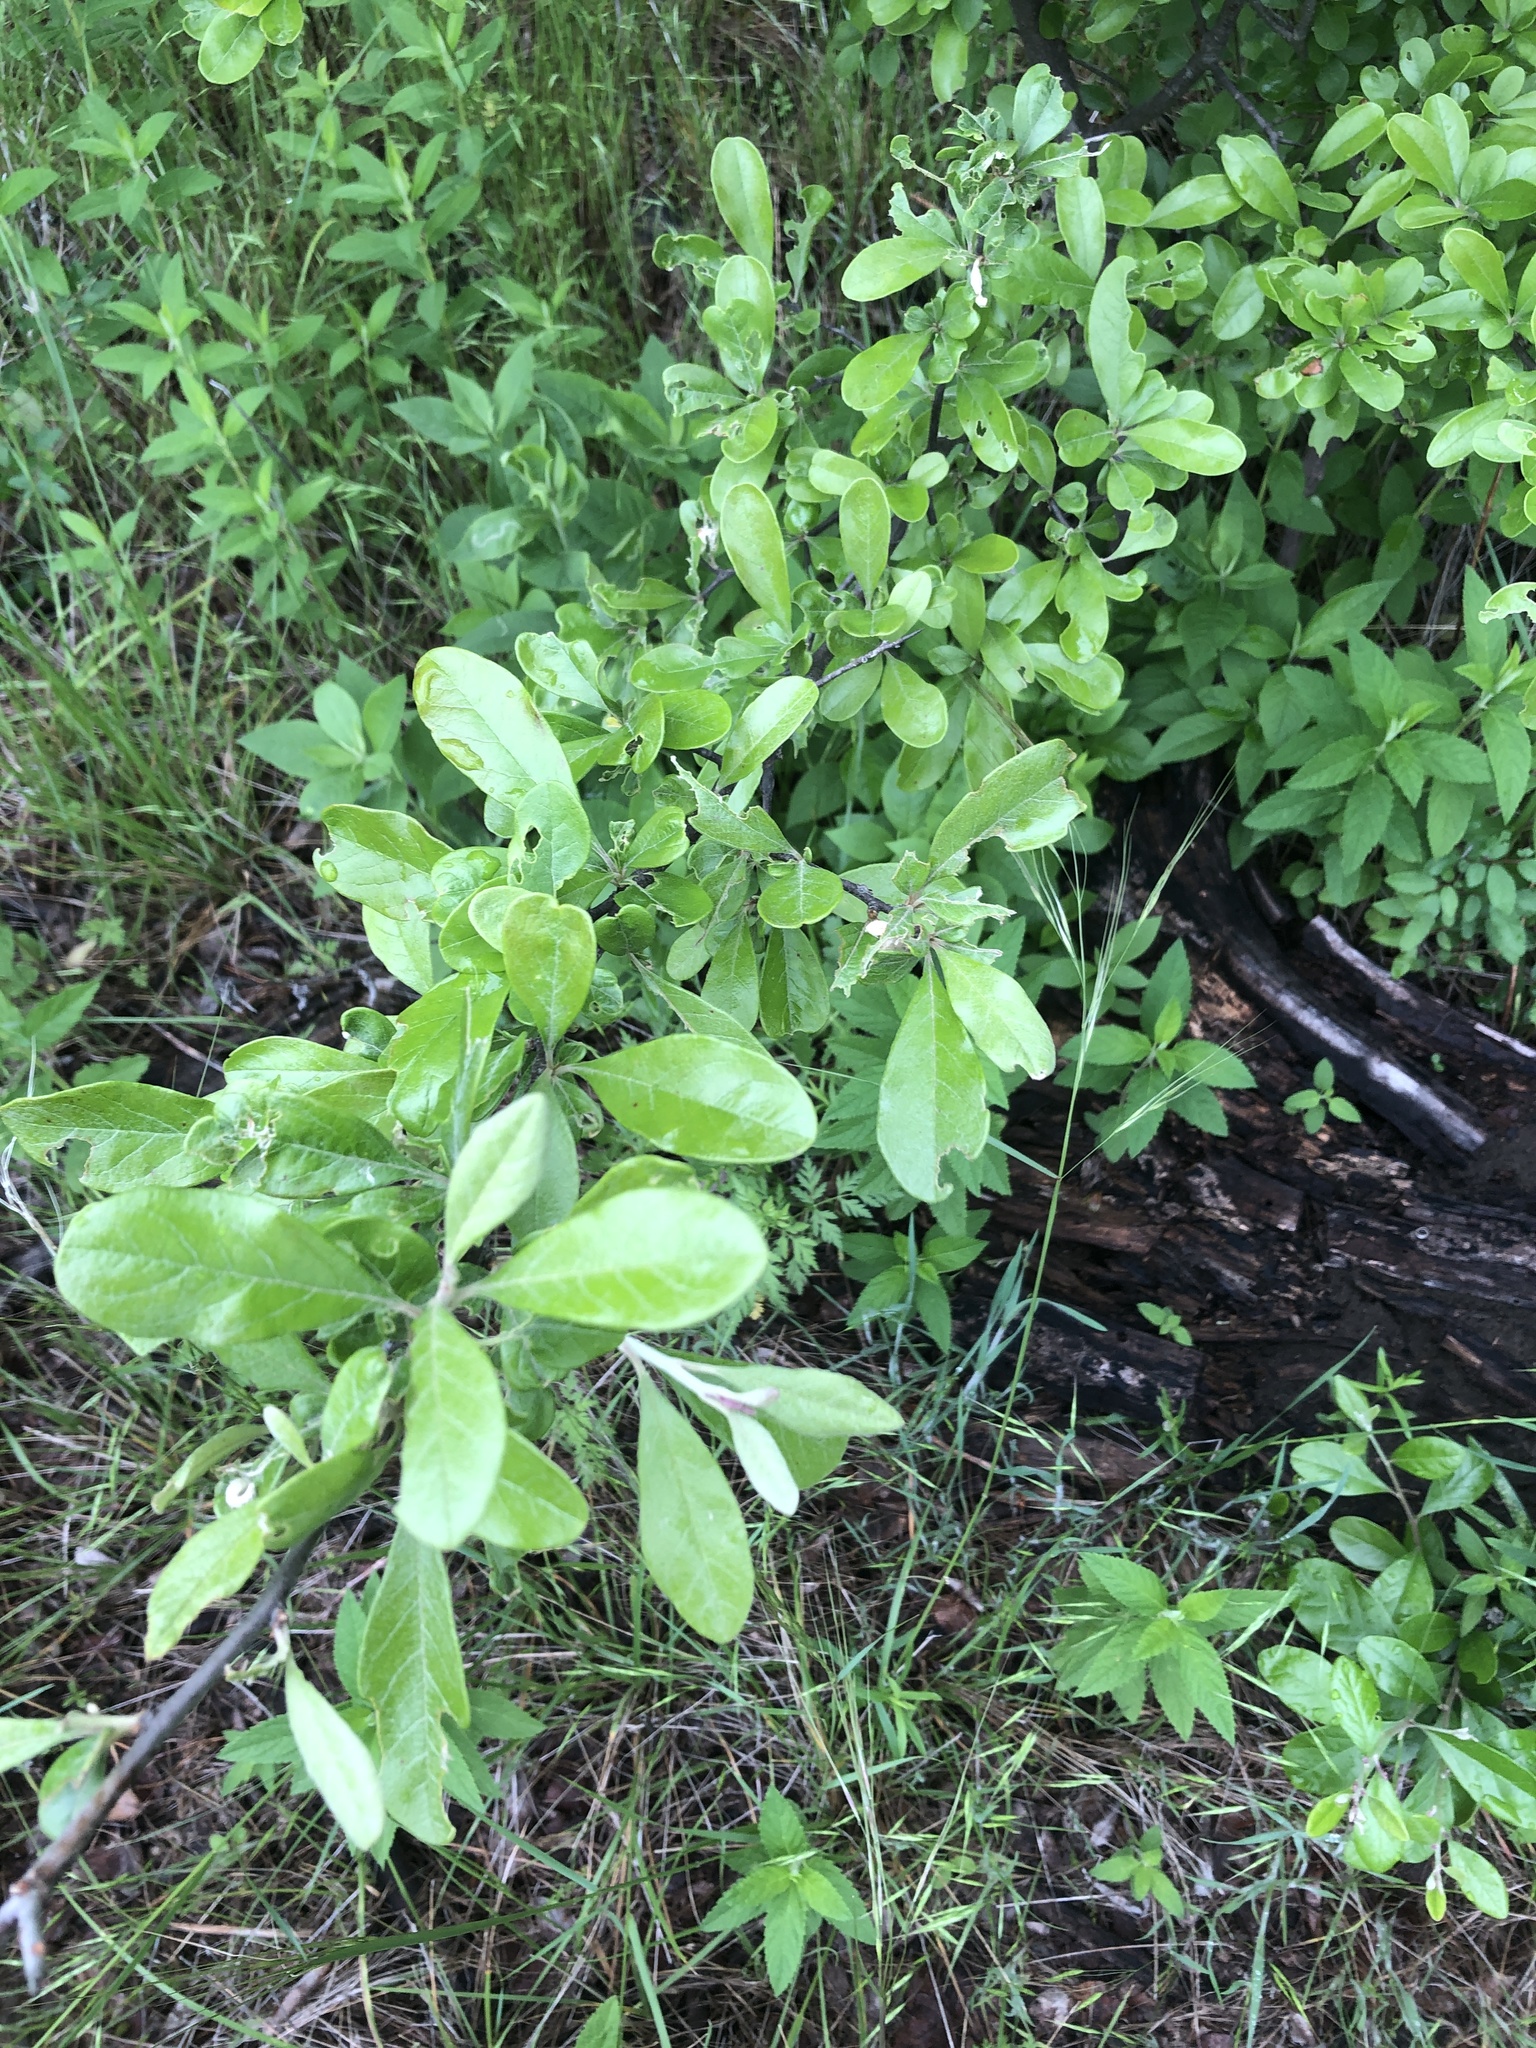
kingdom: Plantae
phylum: Tracheophyta
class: Magnoliopsida
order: Ericales
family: Sapotaceae
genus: Sideroxylon
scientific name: Sideroxylon lanuginosum
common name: Chittamwood
